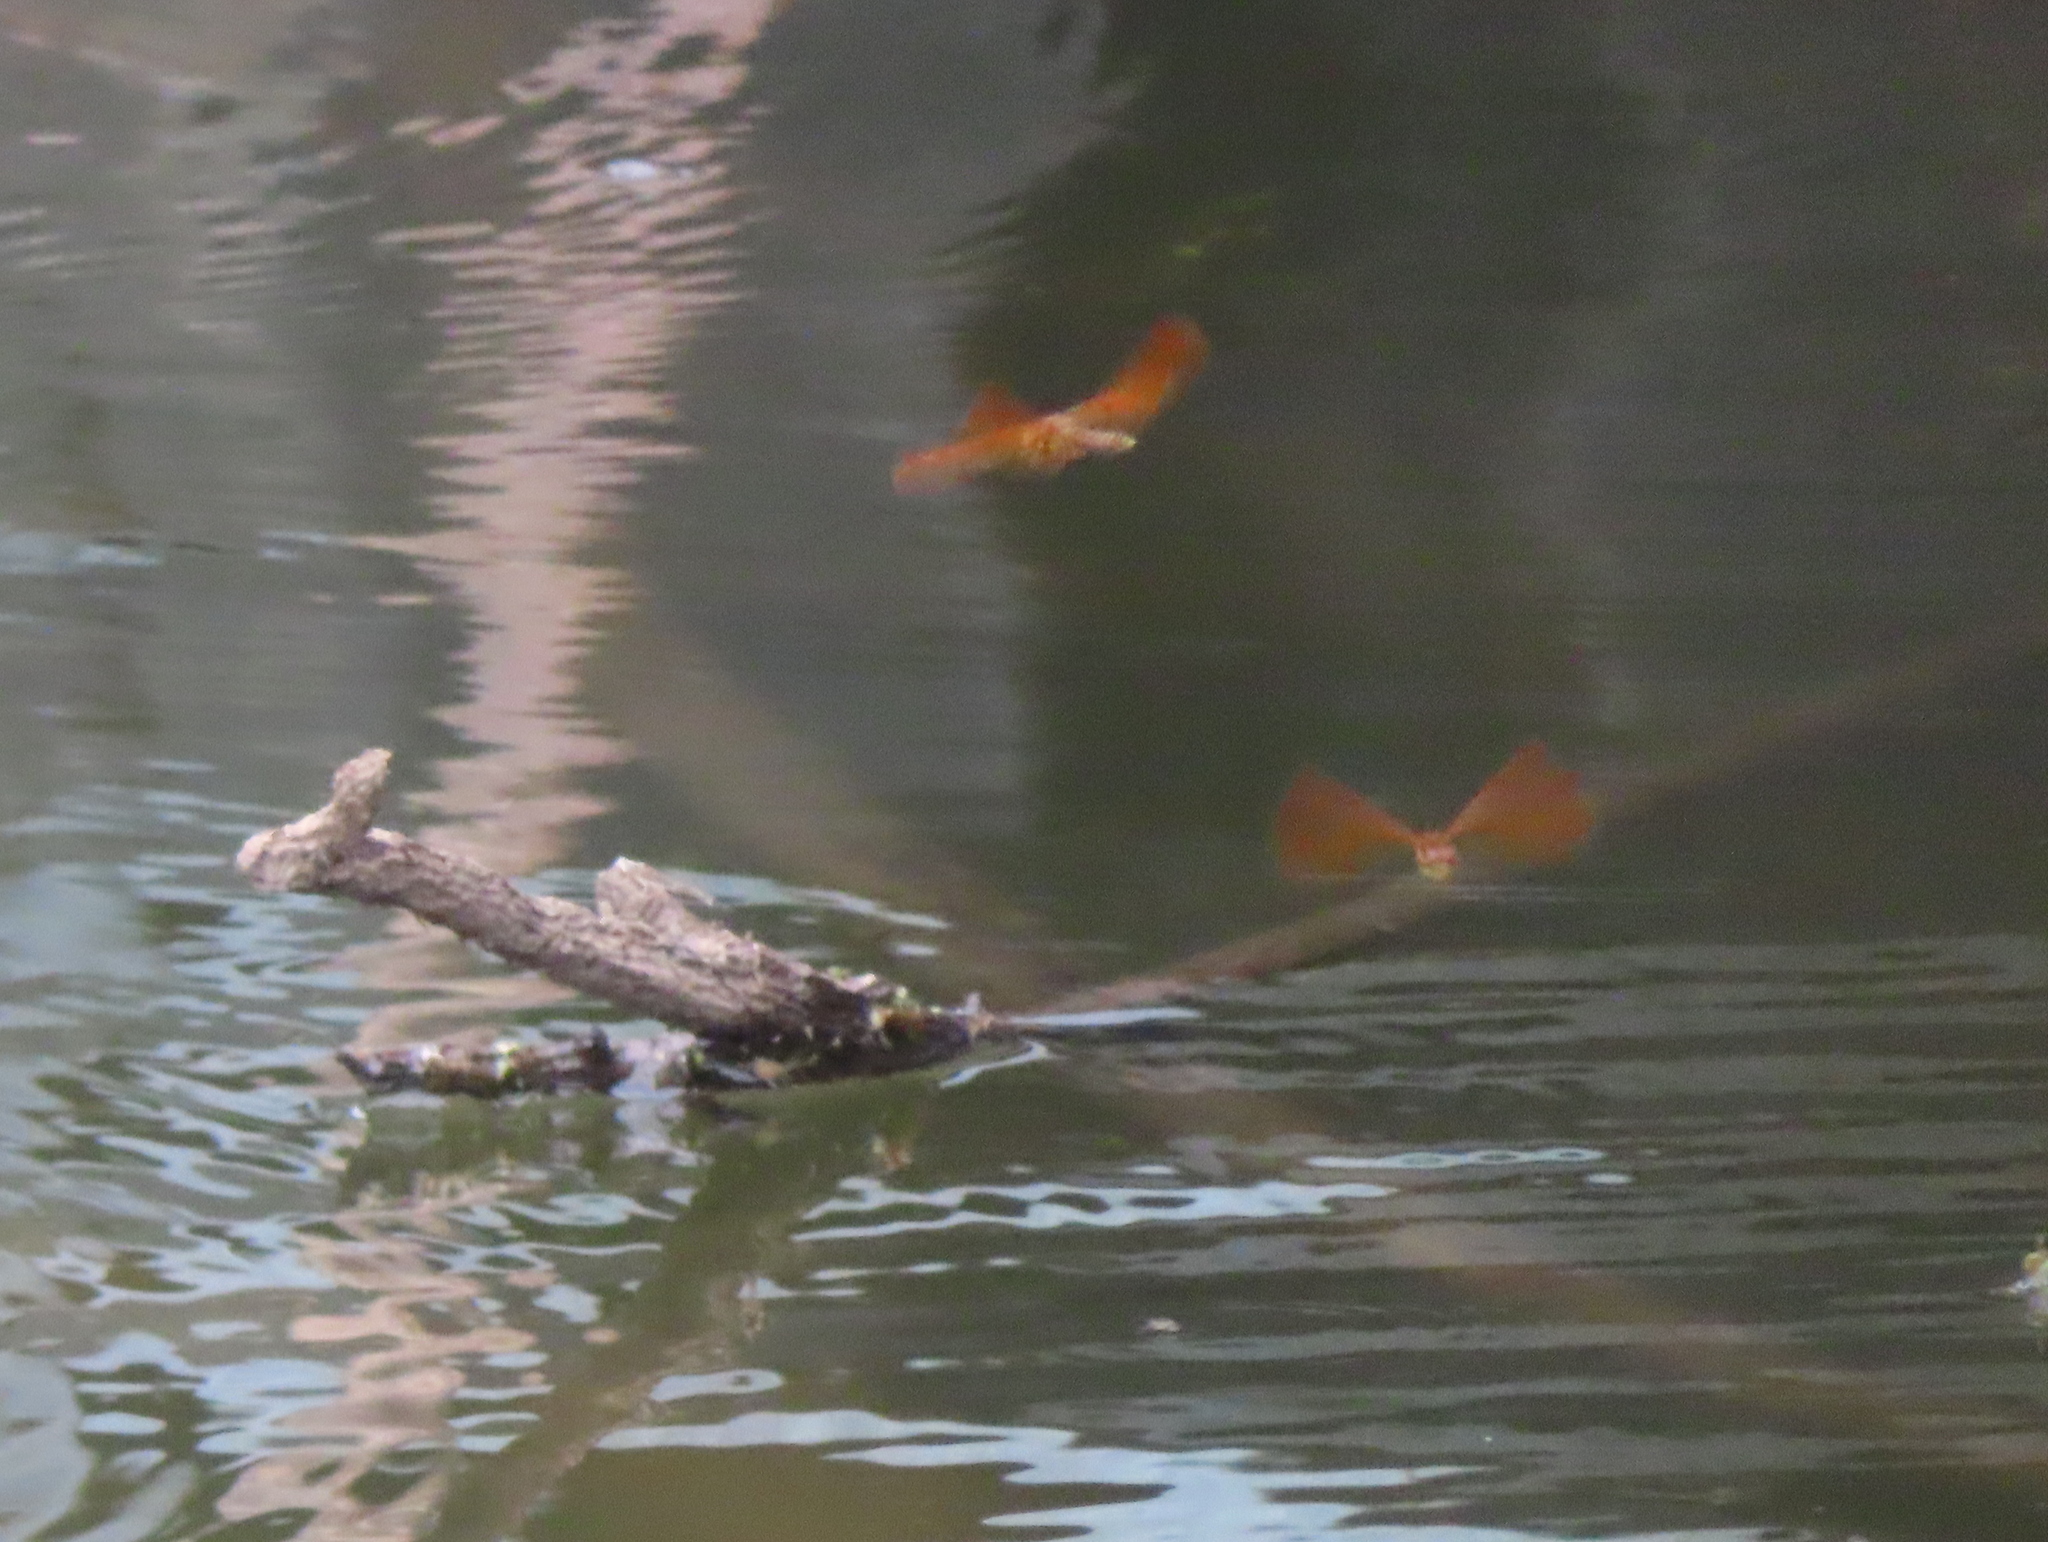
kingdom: Animalia
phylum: Arthropoda
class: Insecta
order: Odonata
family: Libellulidae
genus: Perithemis
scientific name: Perithemis tenera
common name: Eastern amberwing
